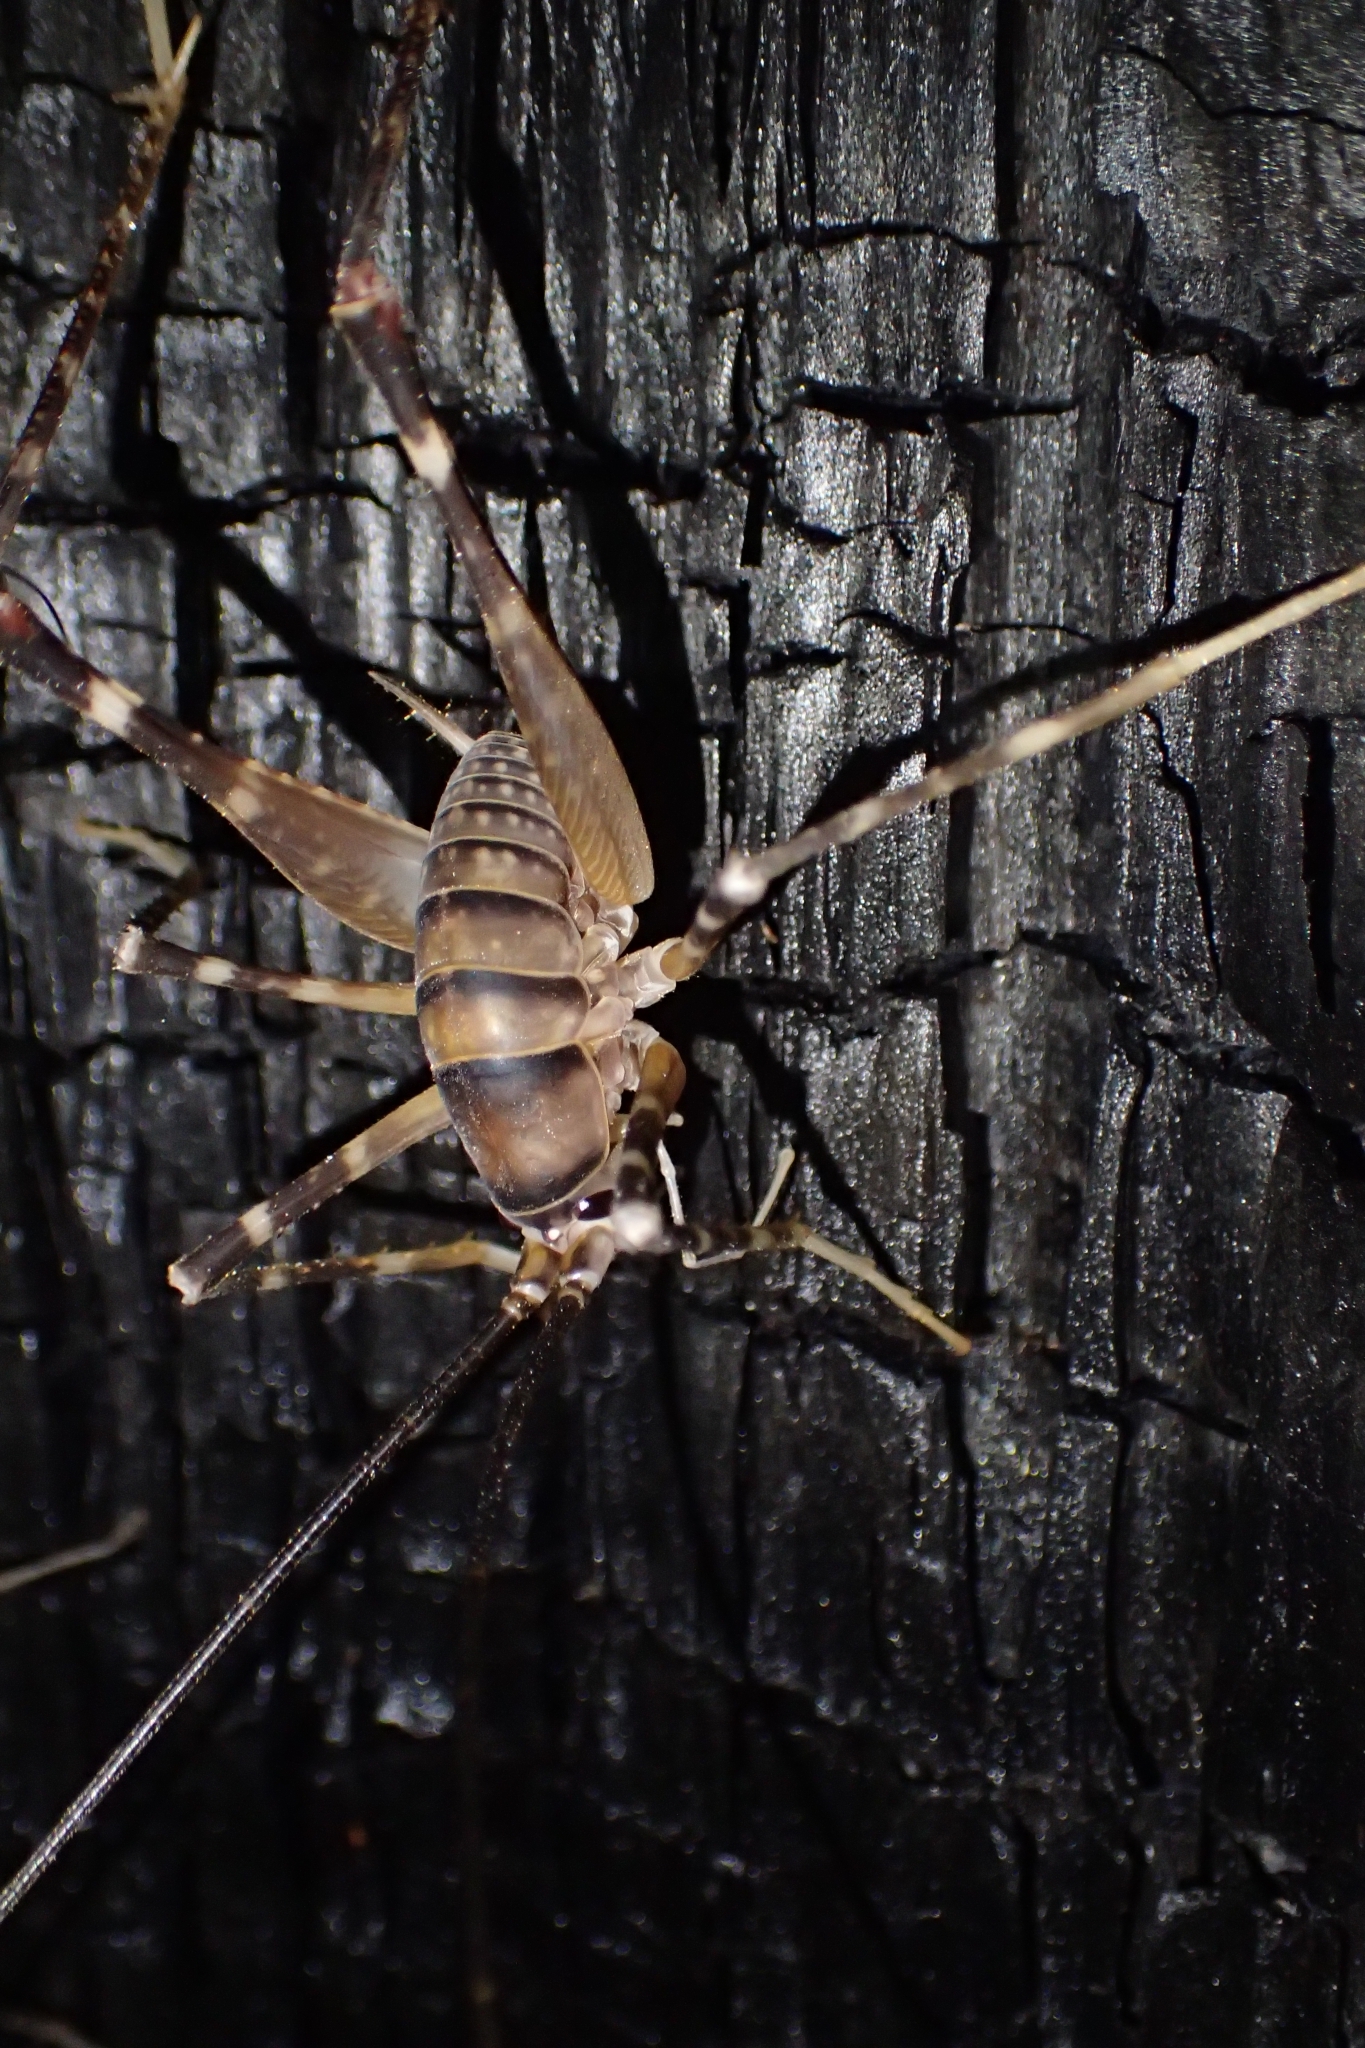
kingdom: Animalia
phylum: Arthropoda
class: Insecta
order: Orthoptera
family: Rhaphidophoridae
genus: Pachyrhamma
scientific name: Pachyrhamma edwardsii
